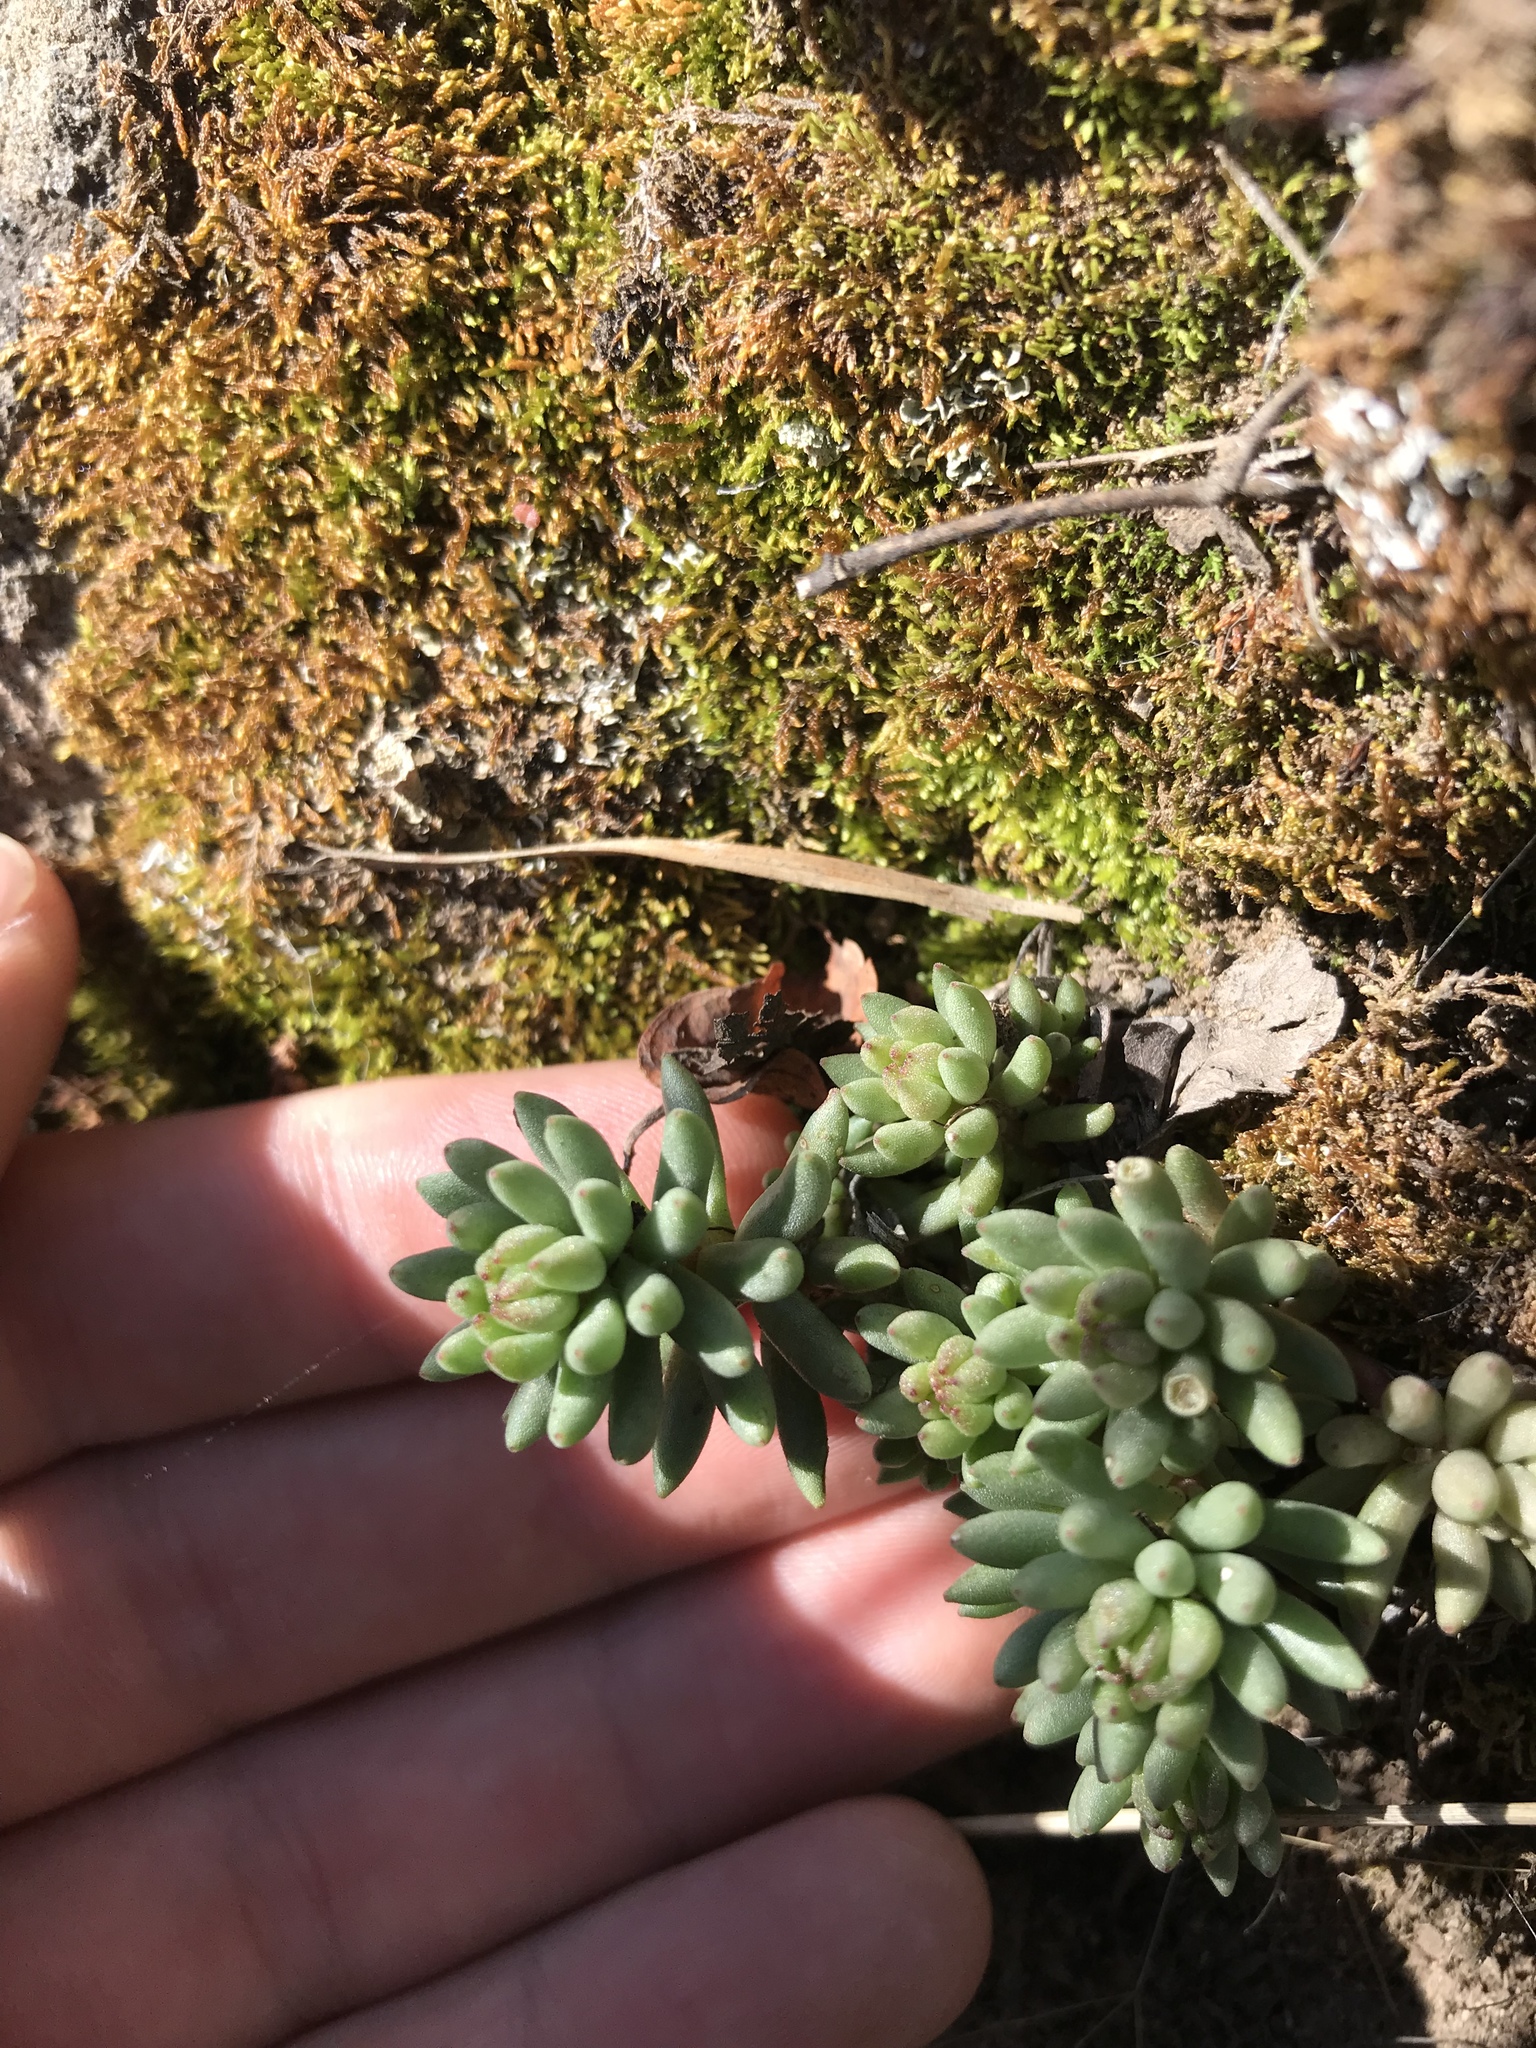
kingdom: Plantae
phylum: Tracheophyta
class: Magnoliopsida
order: Saxifragales
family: Crassulaceae
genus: Sedum
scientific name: Sedum lanceolatum
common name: Common stonecrop
